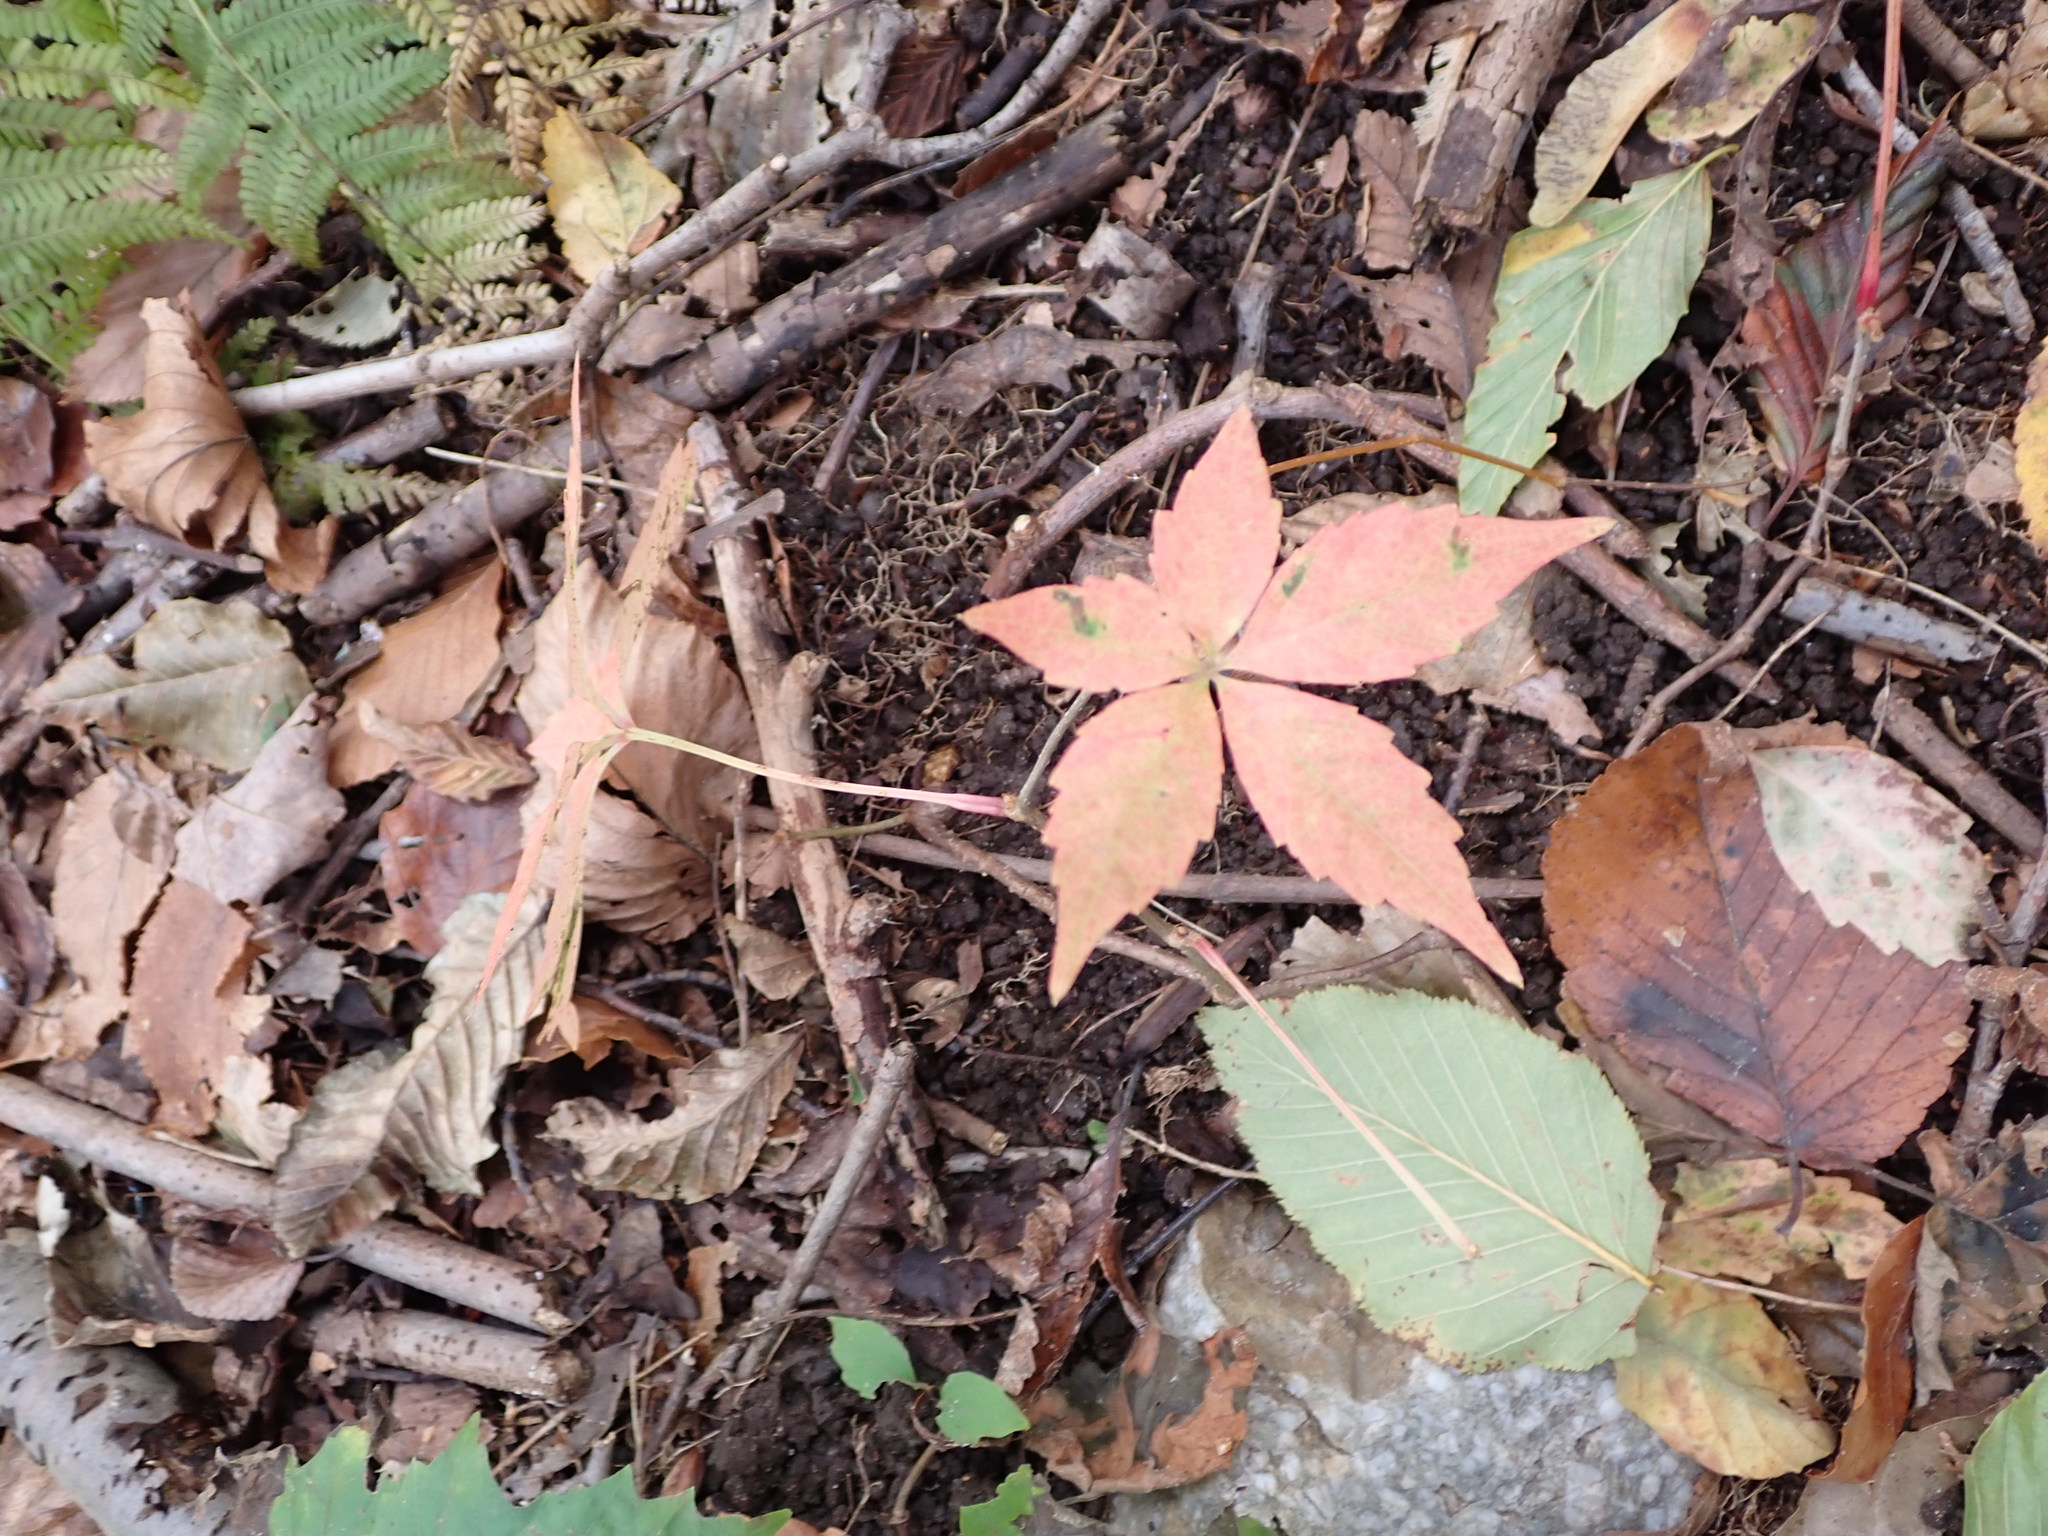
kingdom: Plantae
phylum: Tracheophyta
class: Magnoliopsida
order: Vitales
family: Vitaceae
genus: Parthenocissus
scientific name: Parthenocissus quinquefolia
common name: Virginia-creeper
